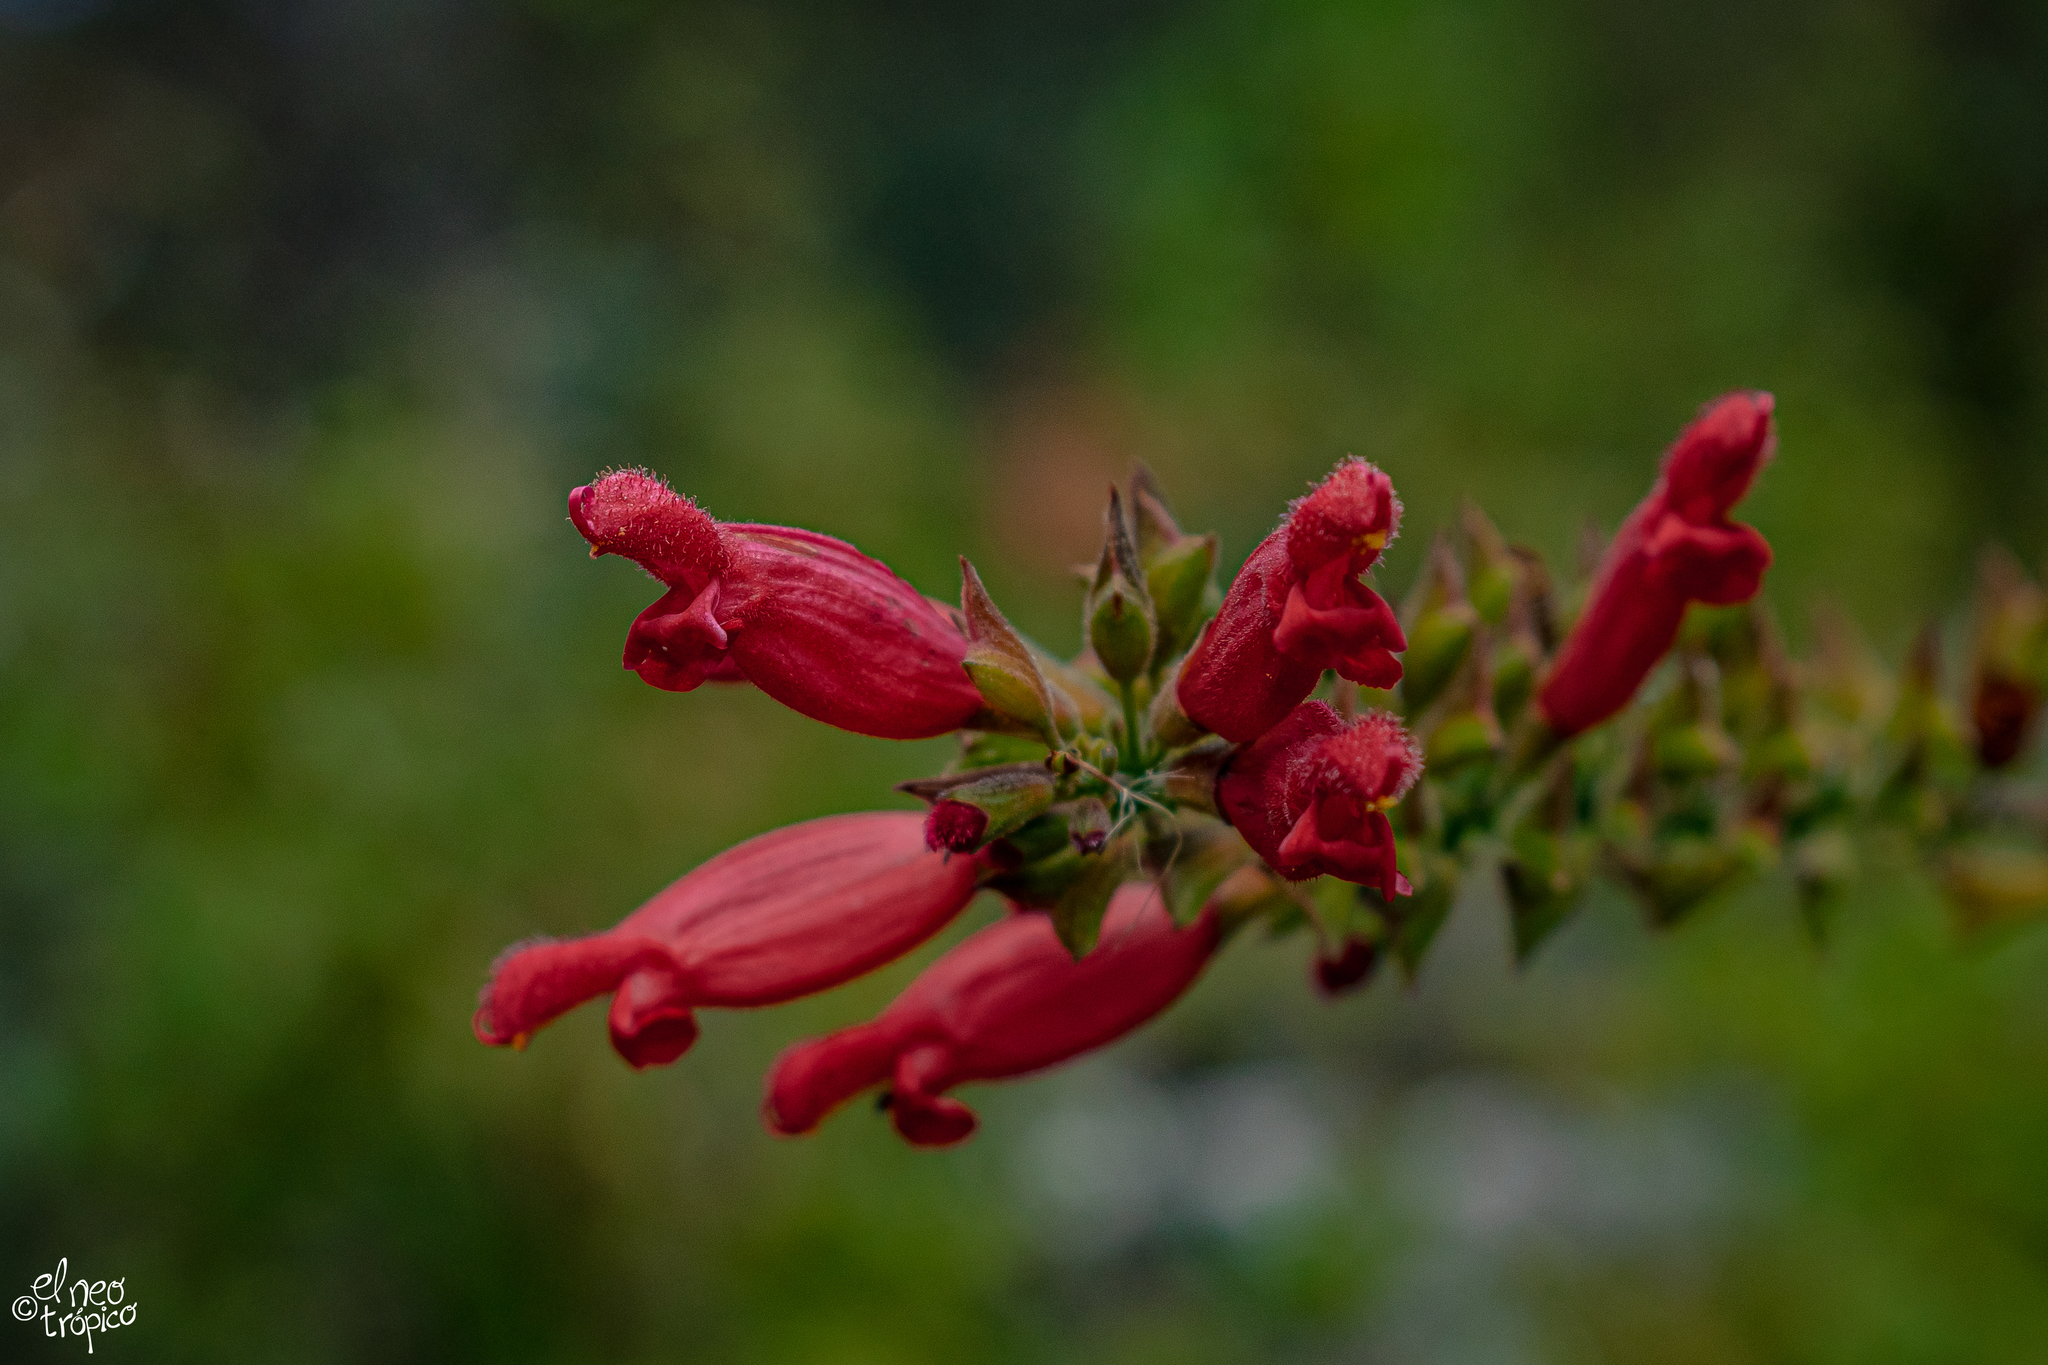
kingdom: Plantae
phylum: Tracheophyta
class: Magnoliopsida
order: Lamiales
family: Lamiaceae
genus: Salvia
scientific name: Salvia holwayi
